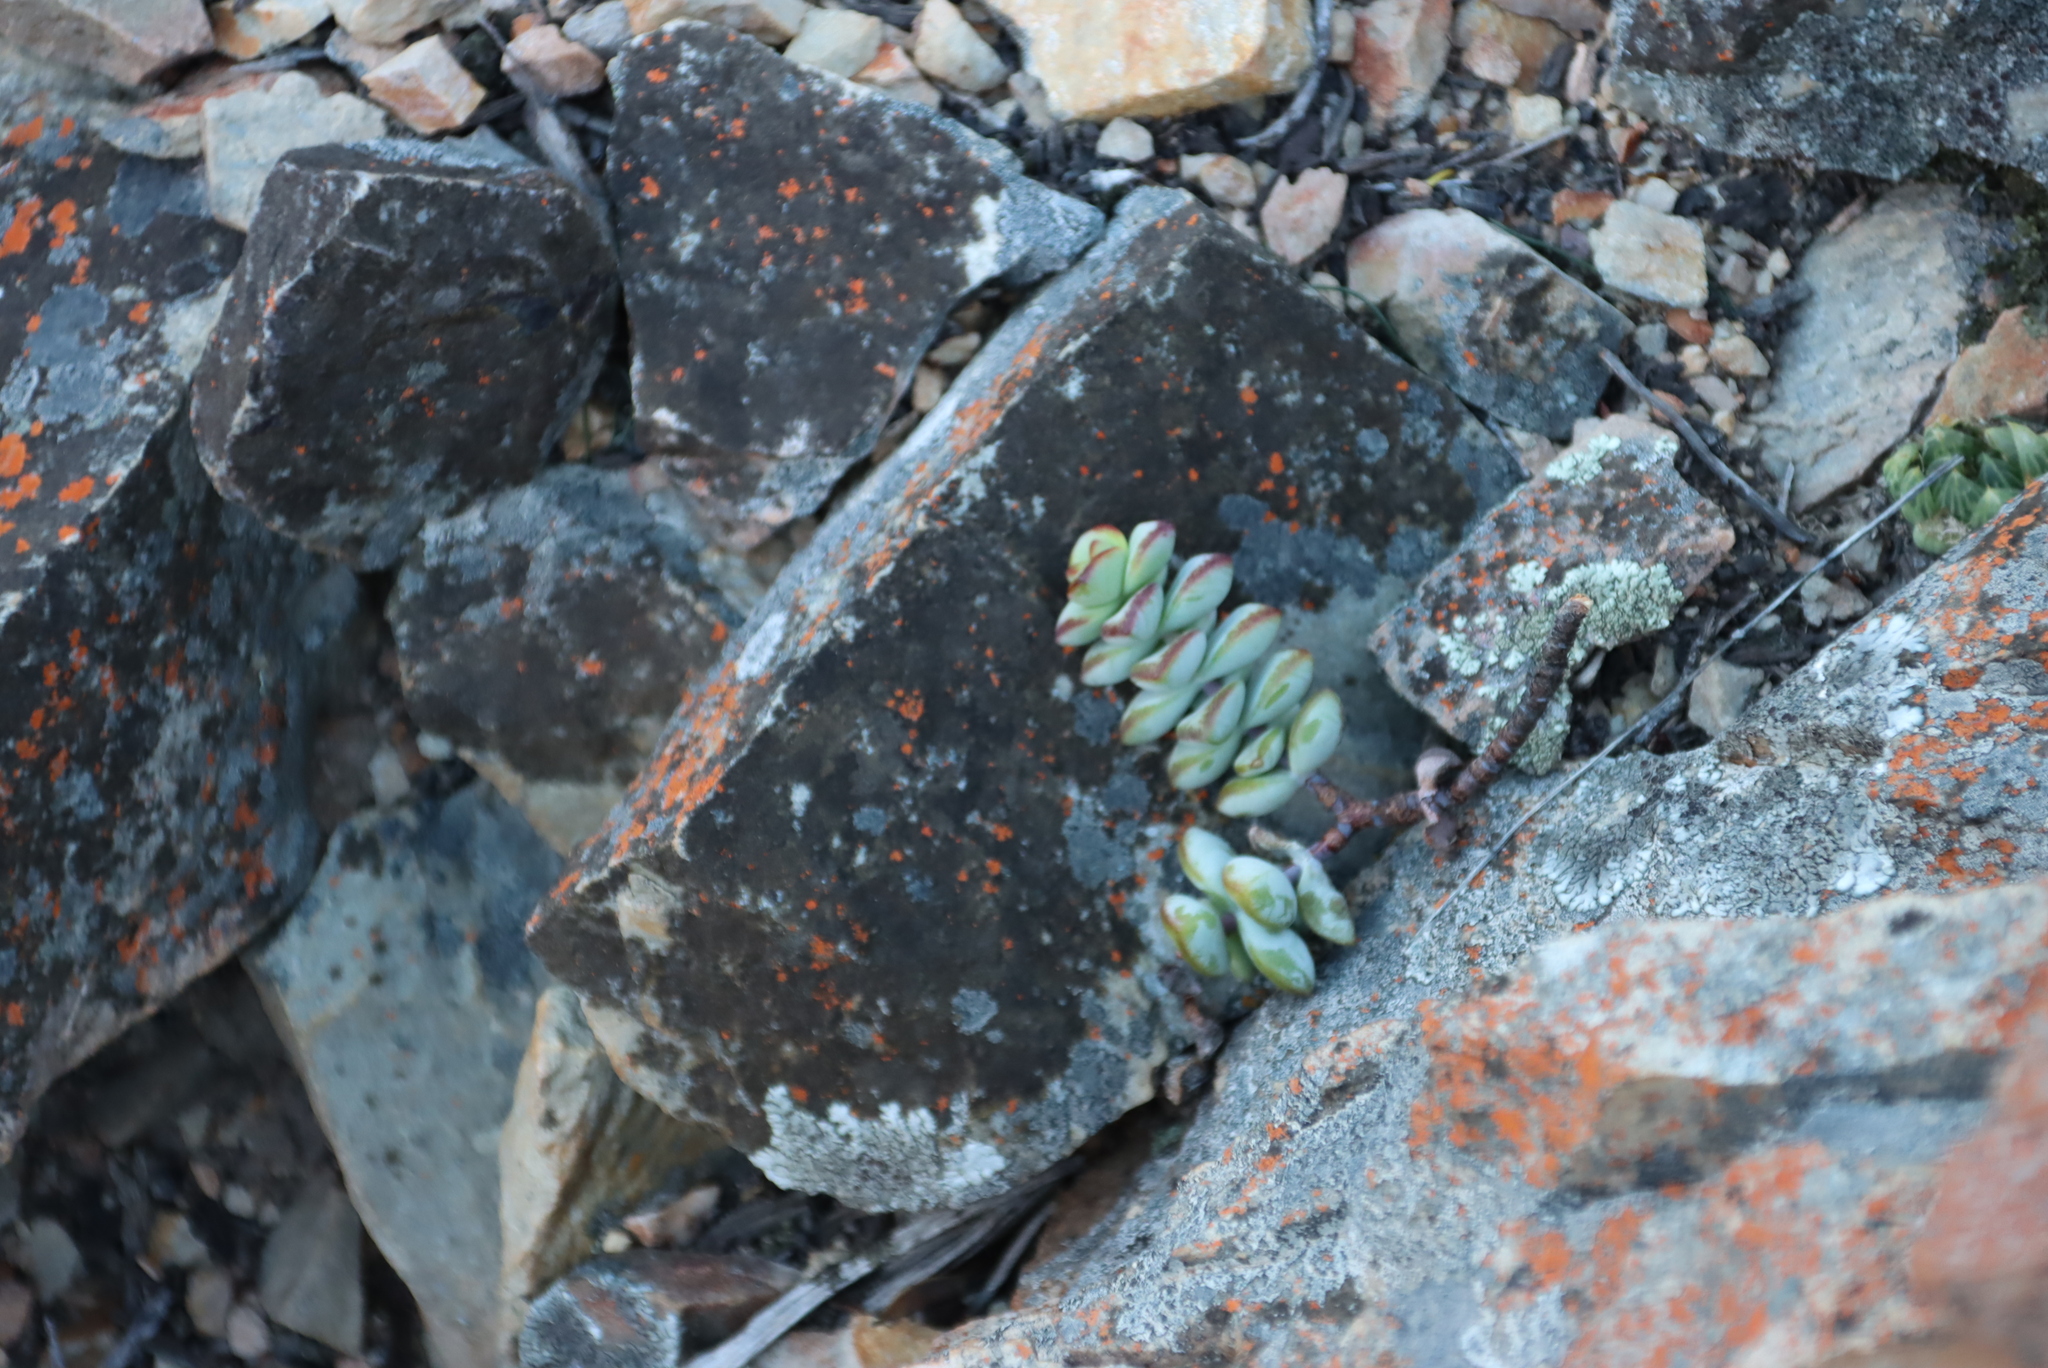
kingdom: Plantae
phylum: Tracheophyta
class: Magnoliopsida
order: Saxifragales
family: Crassulaceae
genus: Crassula
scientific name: Crassula rupestris
